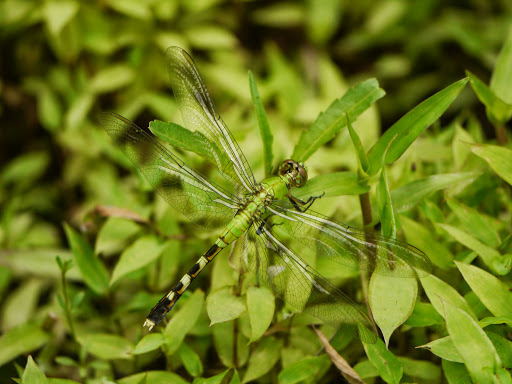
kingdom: Animalia
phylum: Arthropoda
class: Insecta
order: Odonata
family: Libellulidae
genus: Erythemis
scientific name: Erythemis simplicicollis
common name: Eastern pondhawk
